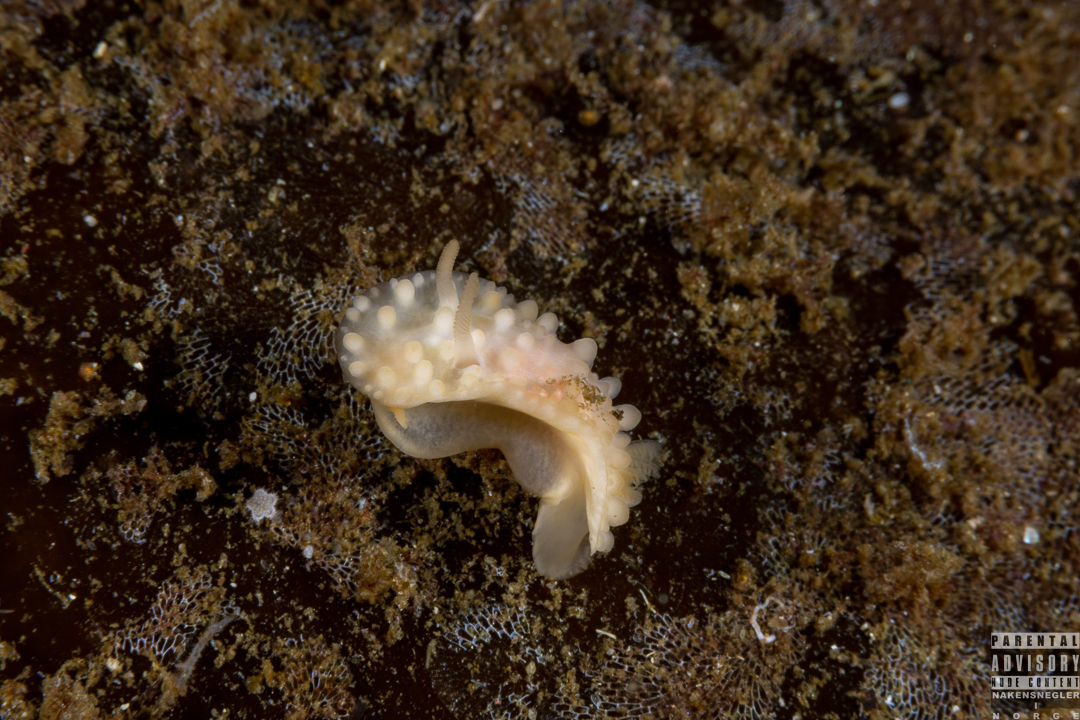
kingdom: Animalia
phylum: Mollusca
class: Gastropoda
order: Nudibranchia
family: Onchidorididae
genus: Adalaria
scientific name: Adalaria loveni
